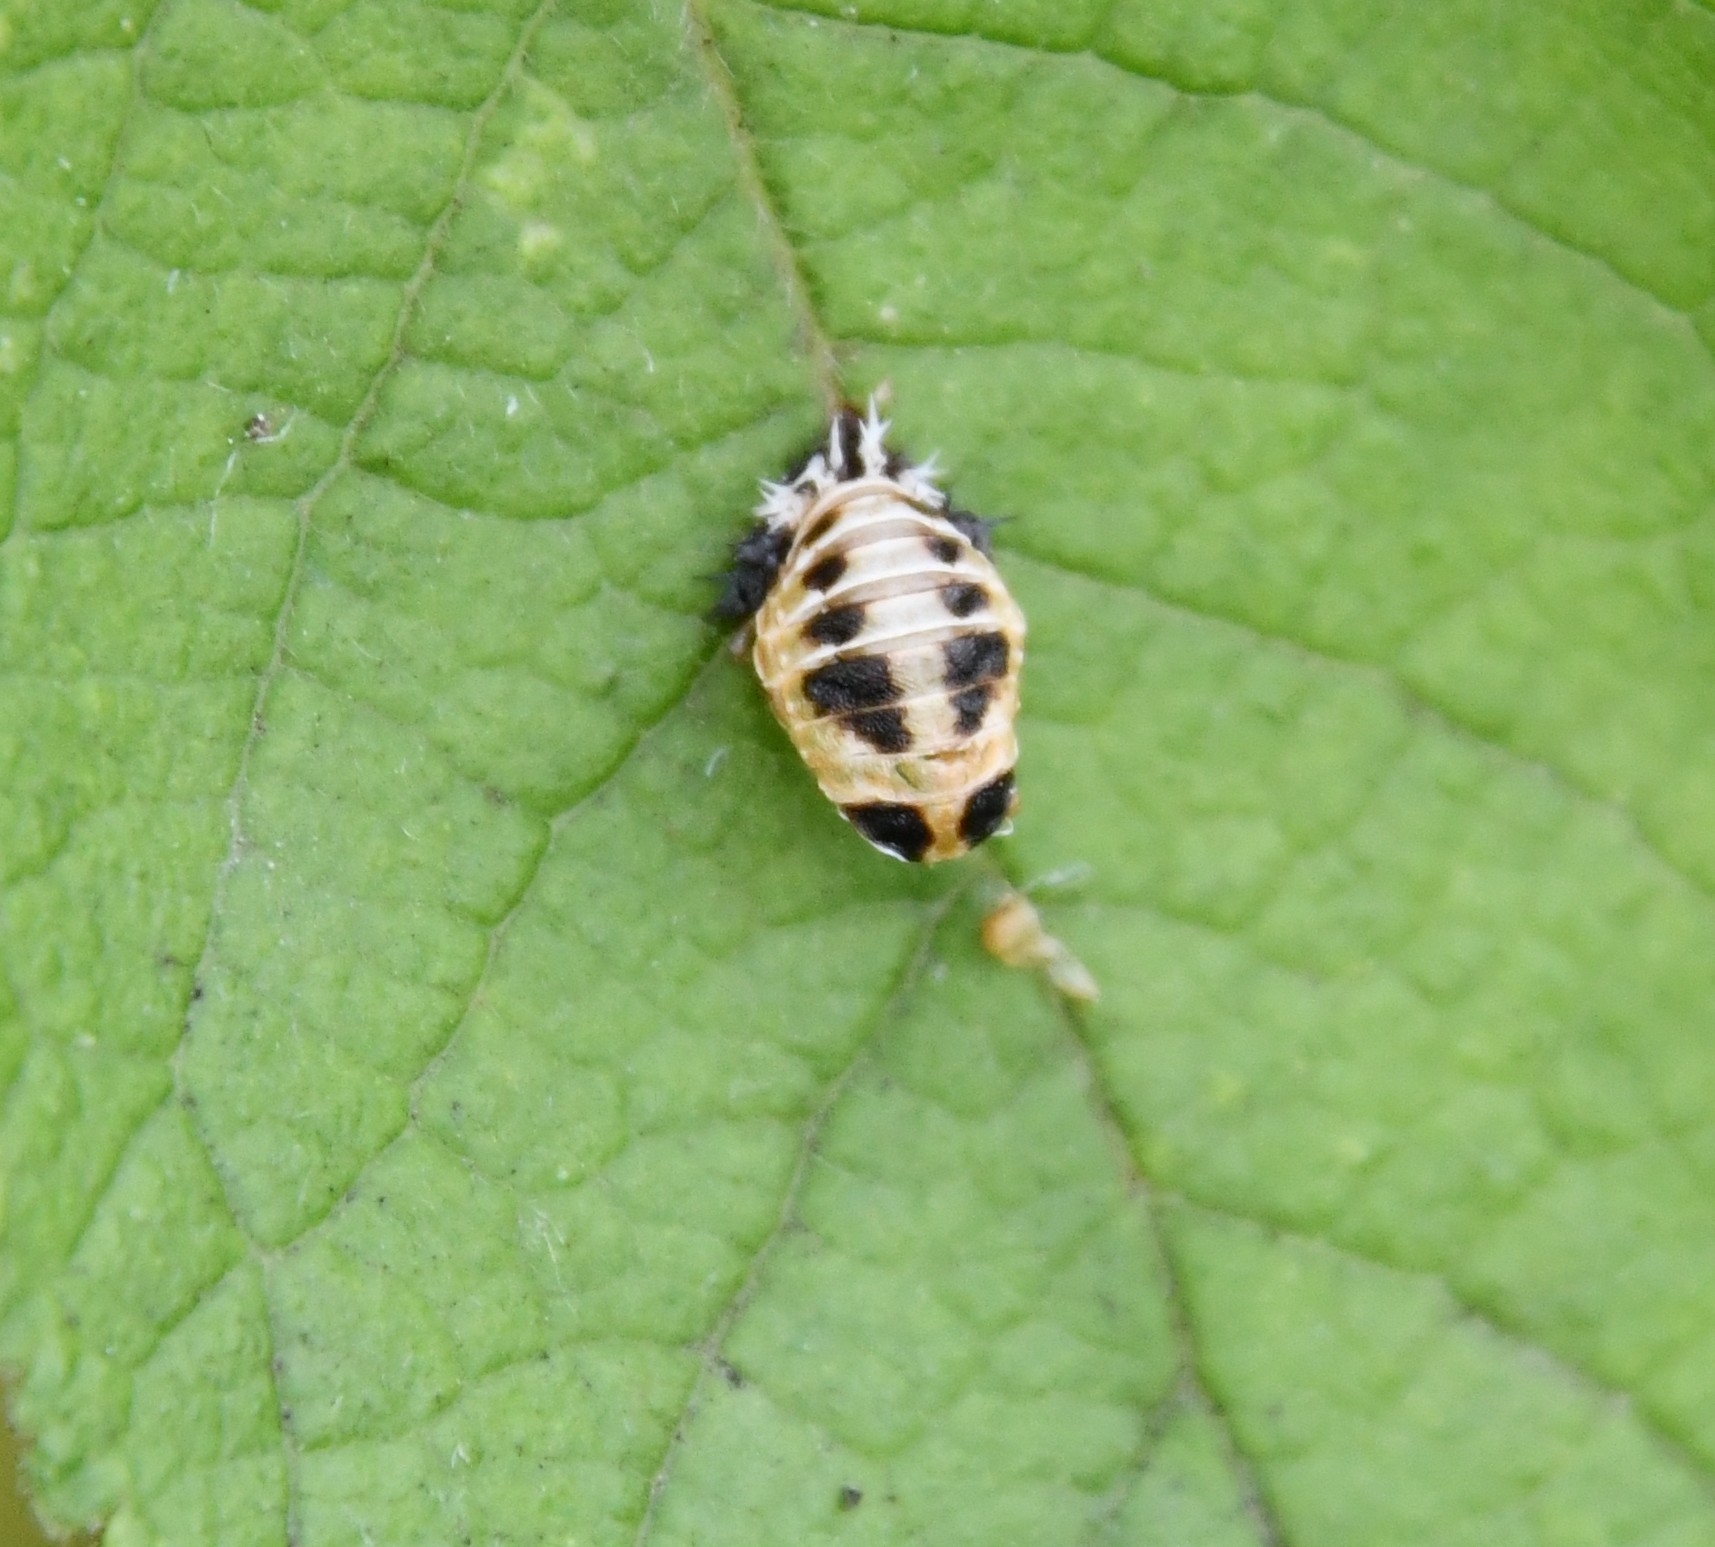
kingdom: Animalia
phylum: Arthropoda
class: Insecta
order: Coleoptera
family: Coccinellidae
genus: Harmonia
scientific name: Harmonia axyridis
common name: Harlequin ladybird
